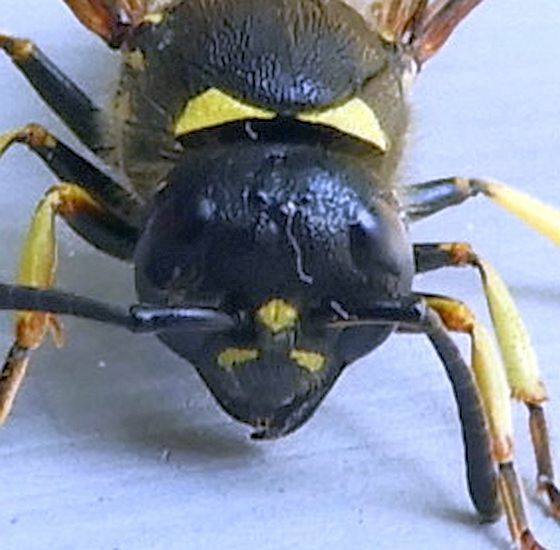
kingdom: Animalia
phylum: Arthropoda
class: Insecta
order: Hymenoptera
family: Vespidae
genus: Ancistrocerus
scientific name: Ancistrocerus
